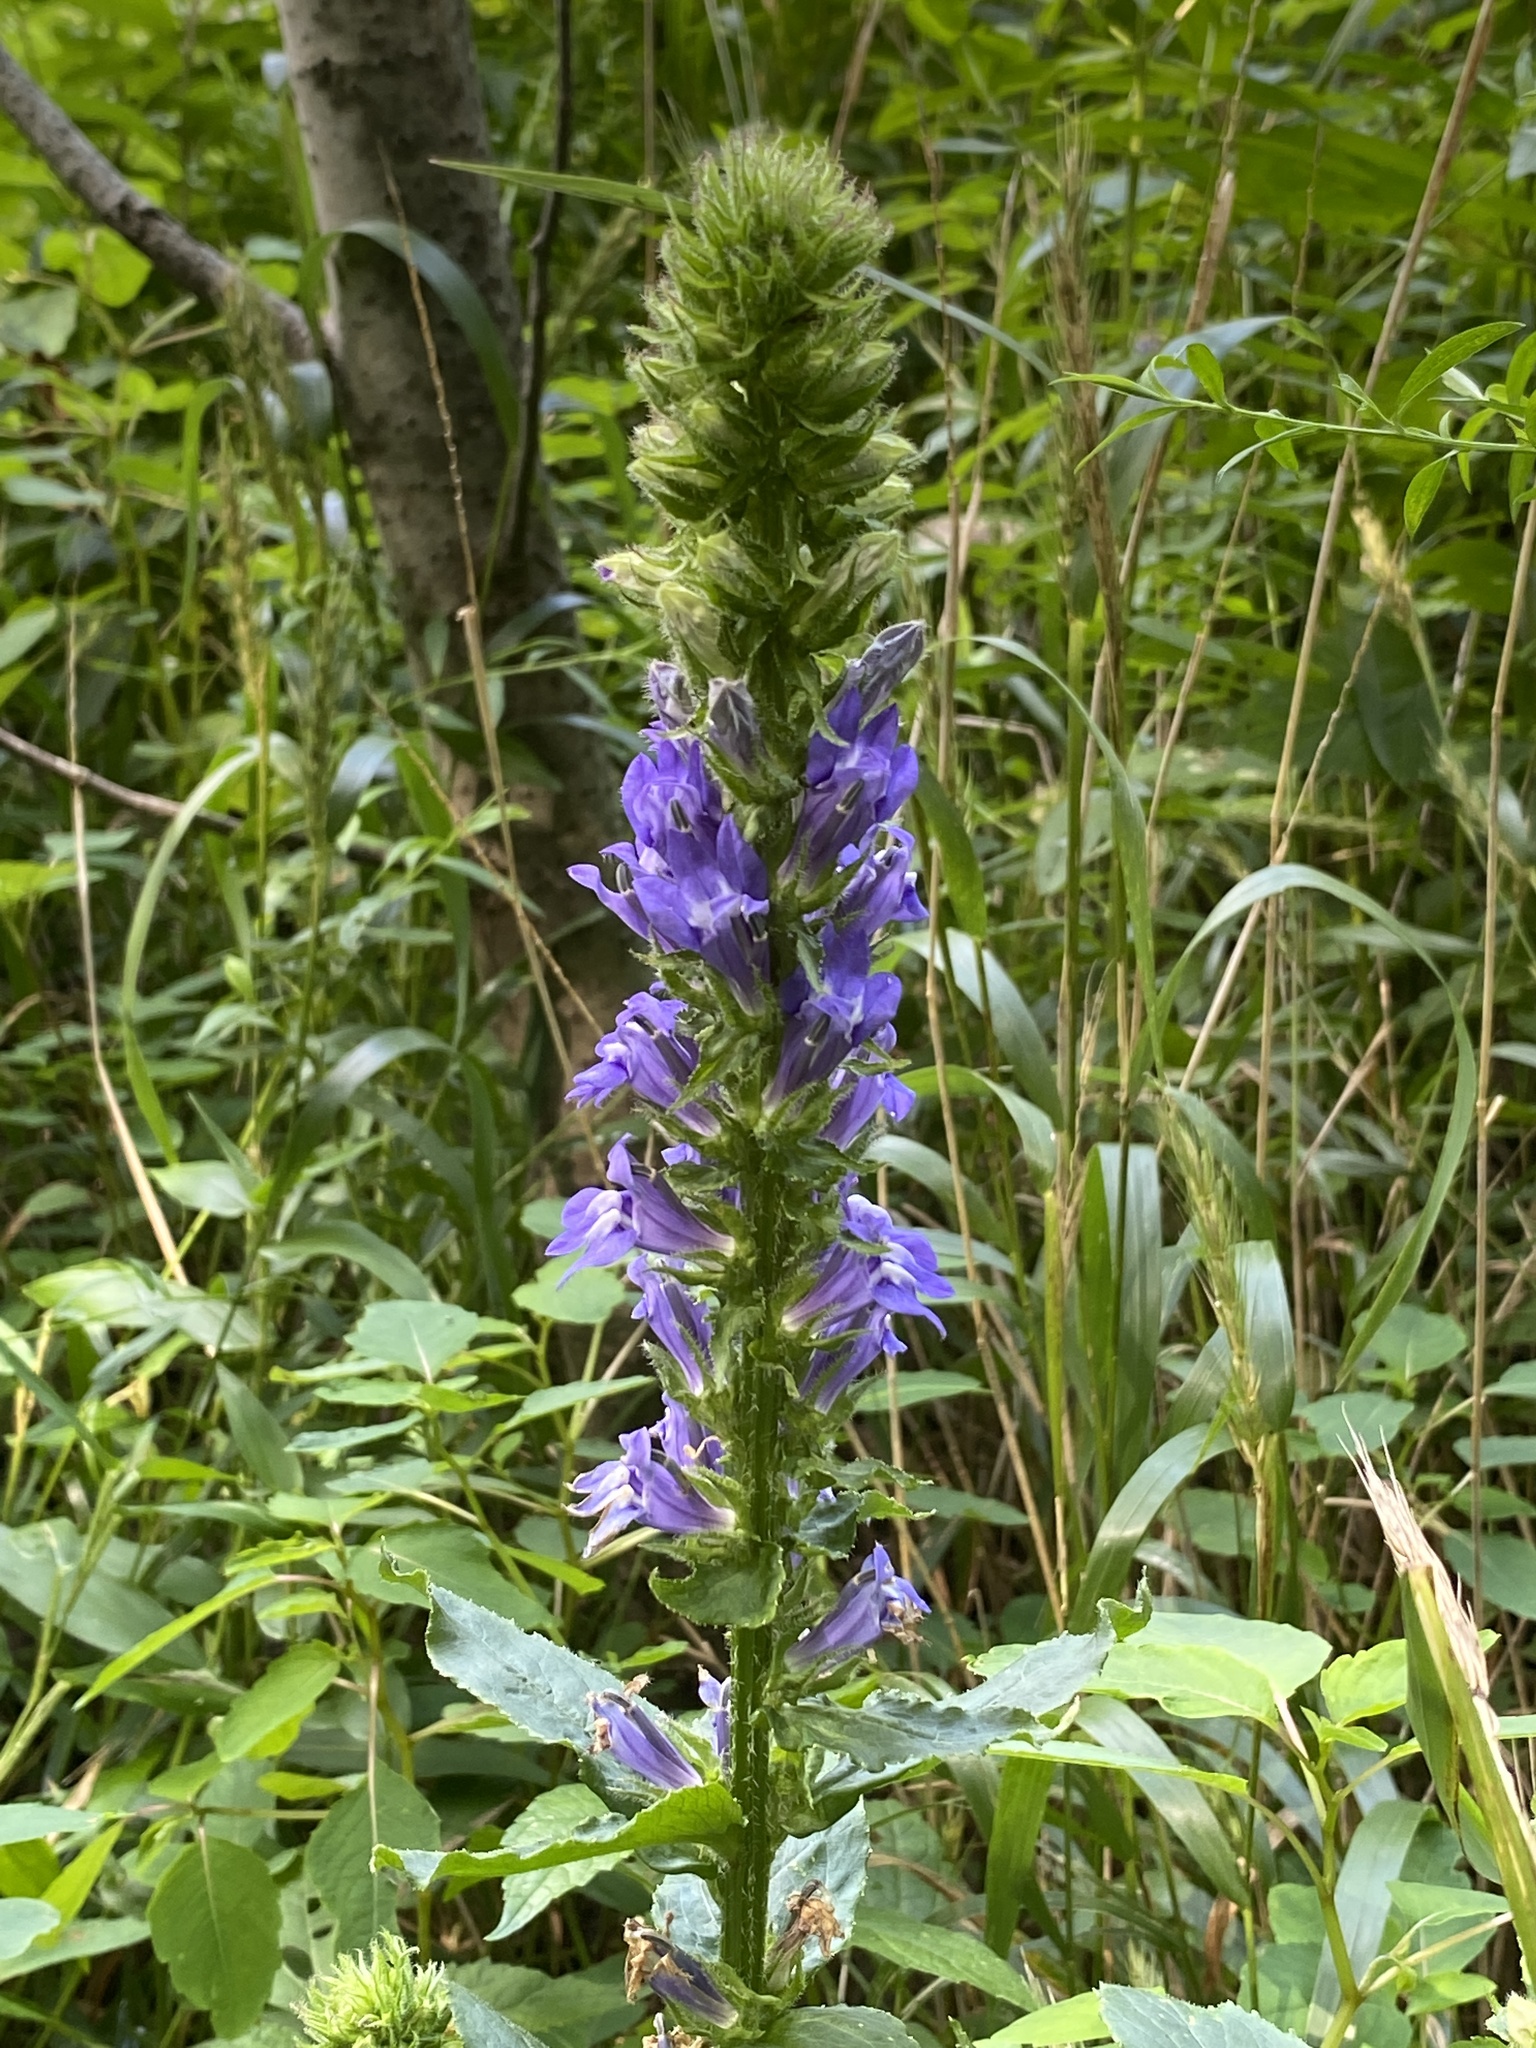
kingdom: Plantae
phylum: Tracheophyta
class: Magnoliopsida
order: Asterales
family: Campanulaceae
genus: Lobelia
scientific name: Lobelia siphilitica
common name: Great lobelia
